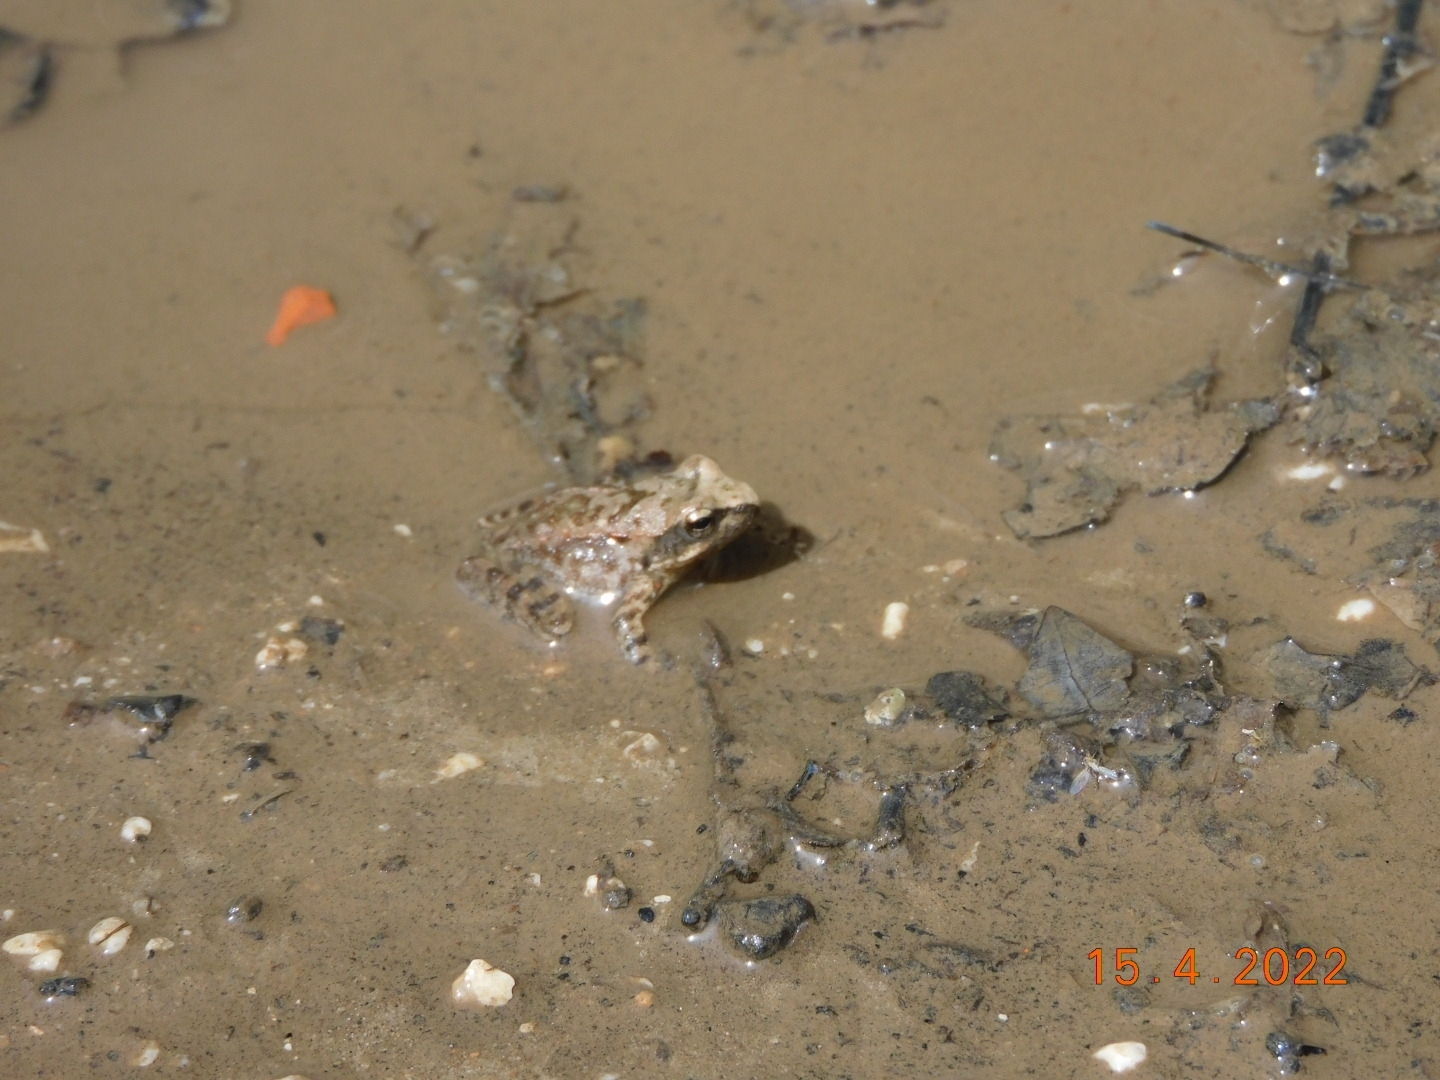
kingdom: Animalia
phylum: Chordata
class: Amphibia
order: Anura
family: Ranidae
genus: Rana
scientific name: Rana italica
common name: Italian stream frog
